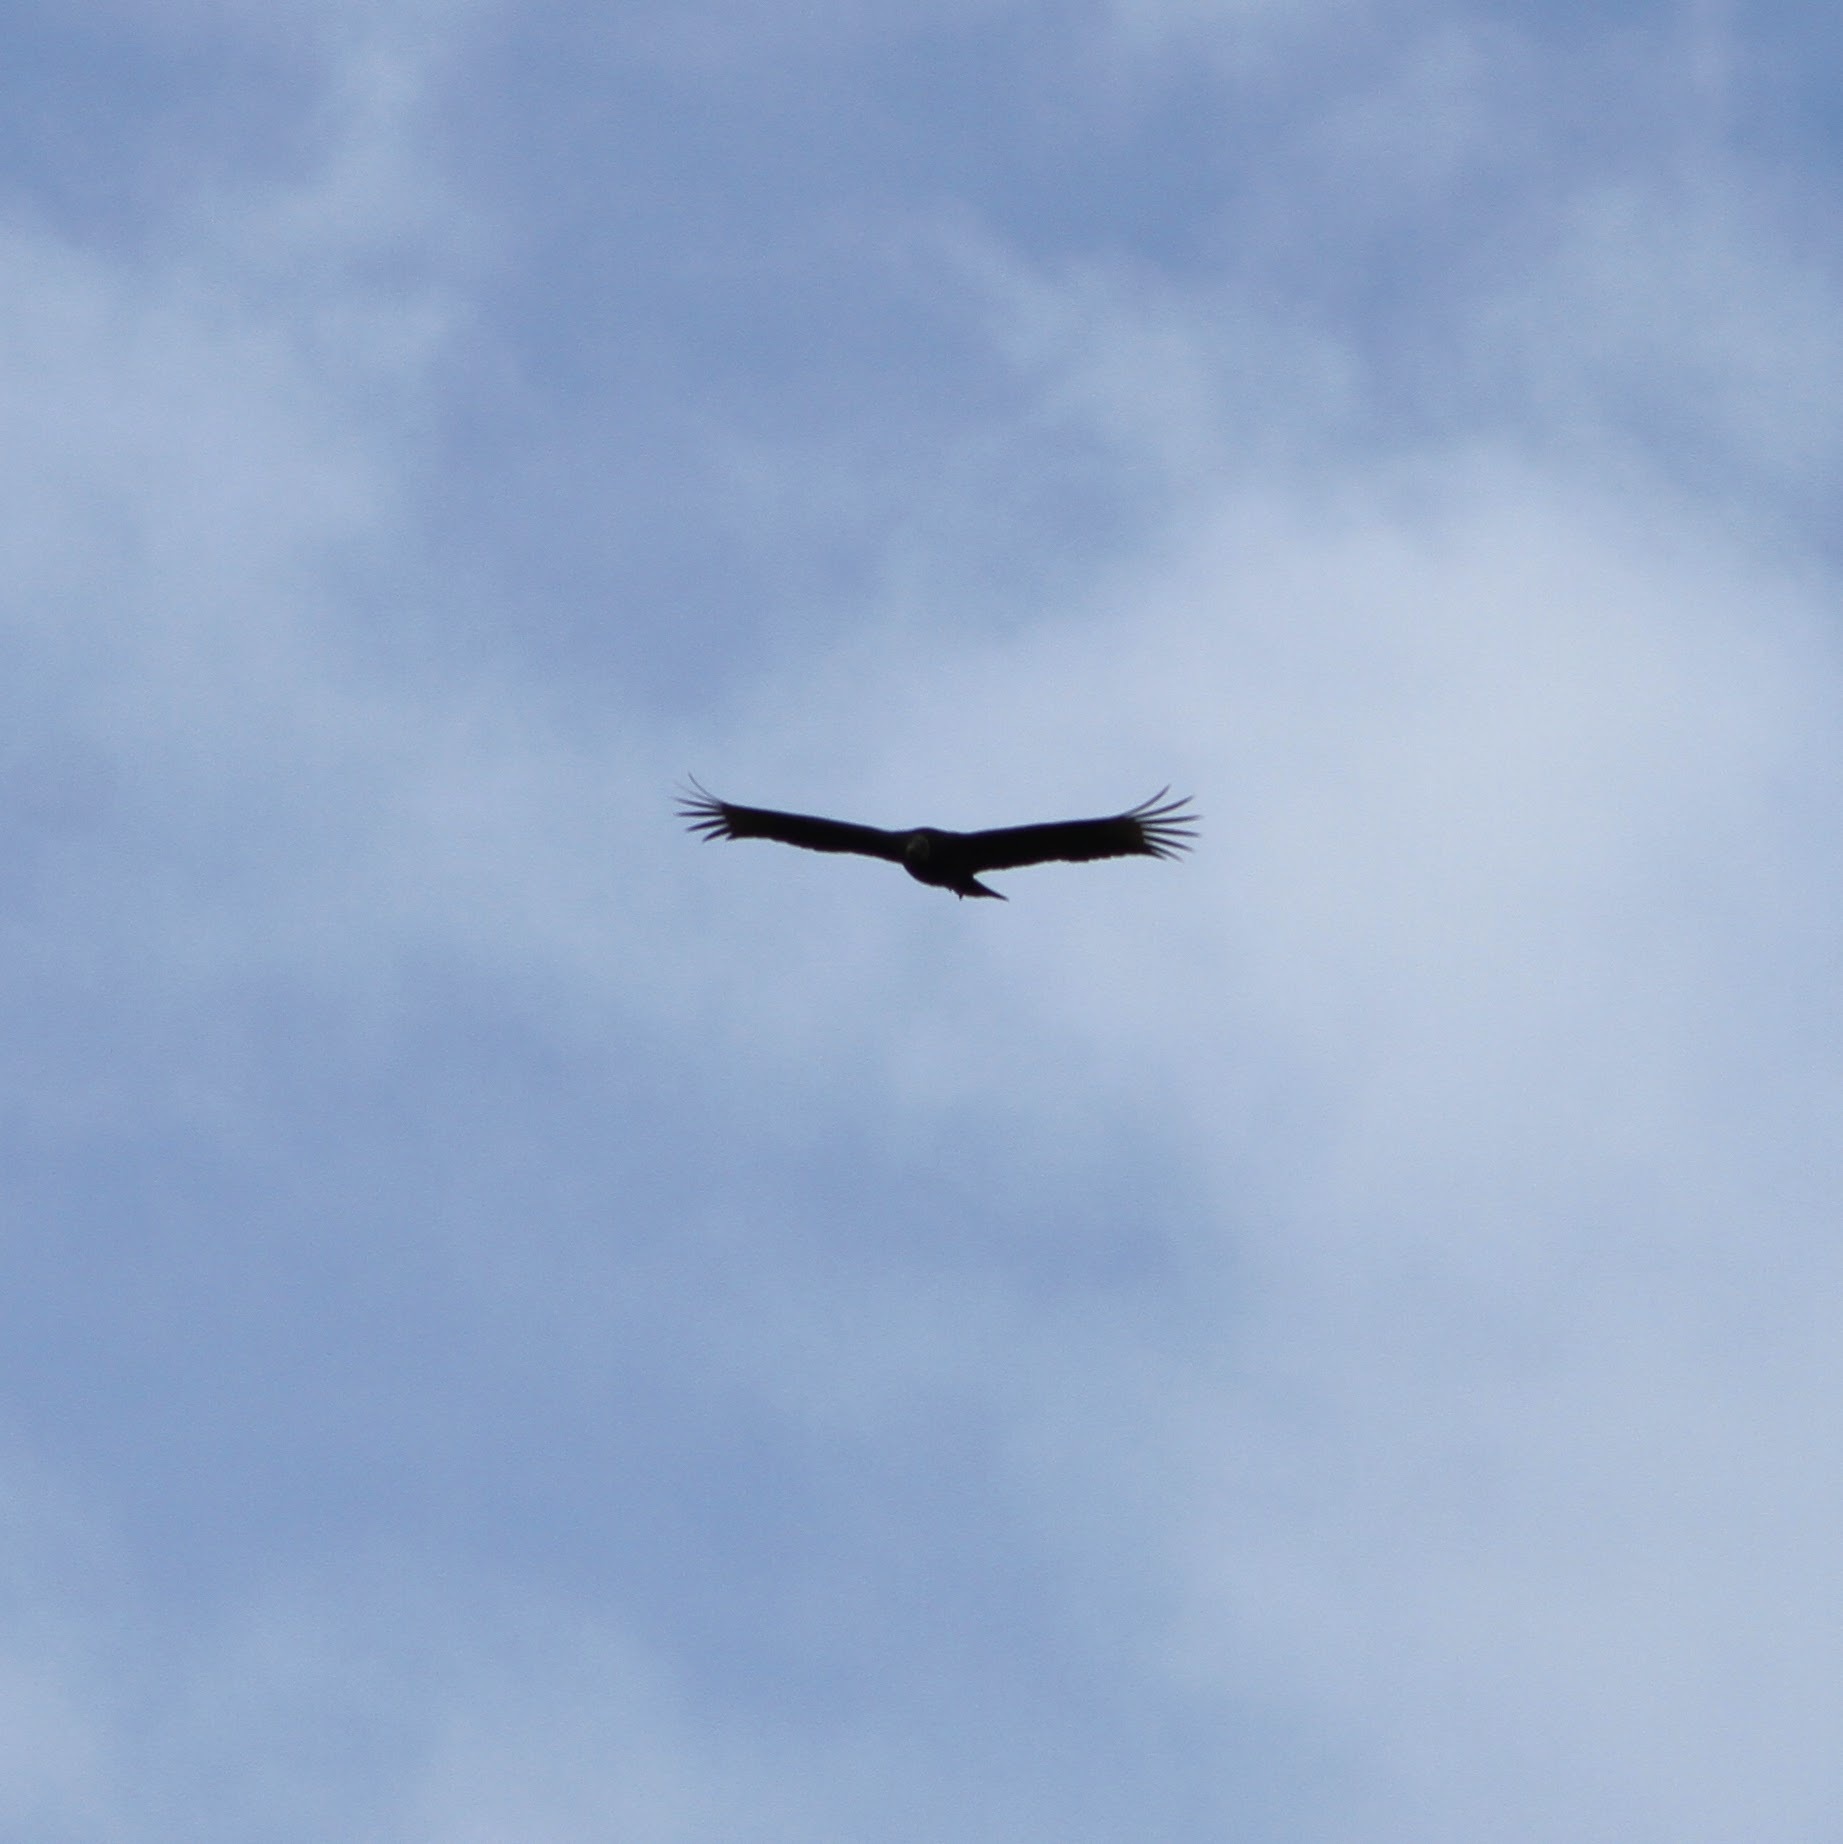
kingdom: Animalia
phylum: Chordata
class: Aves
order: Accipitriformes
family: Cathartidae
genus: Coragyps
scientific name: Coragyps atratus
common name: Black vulture
